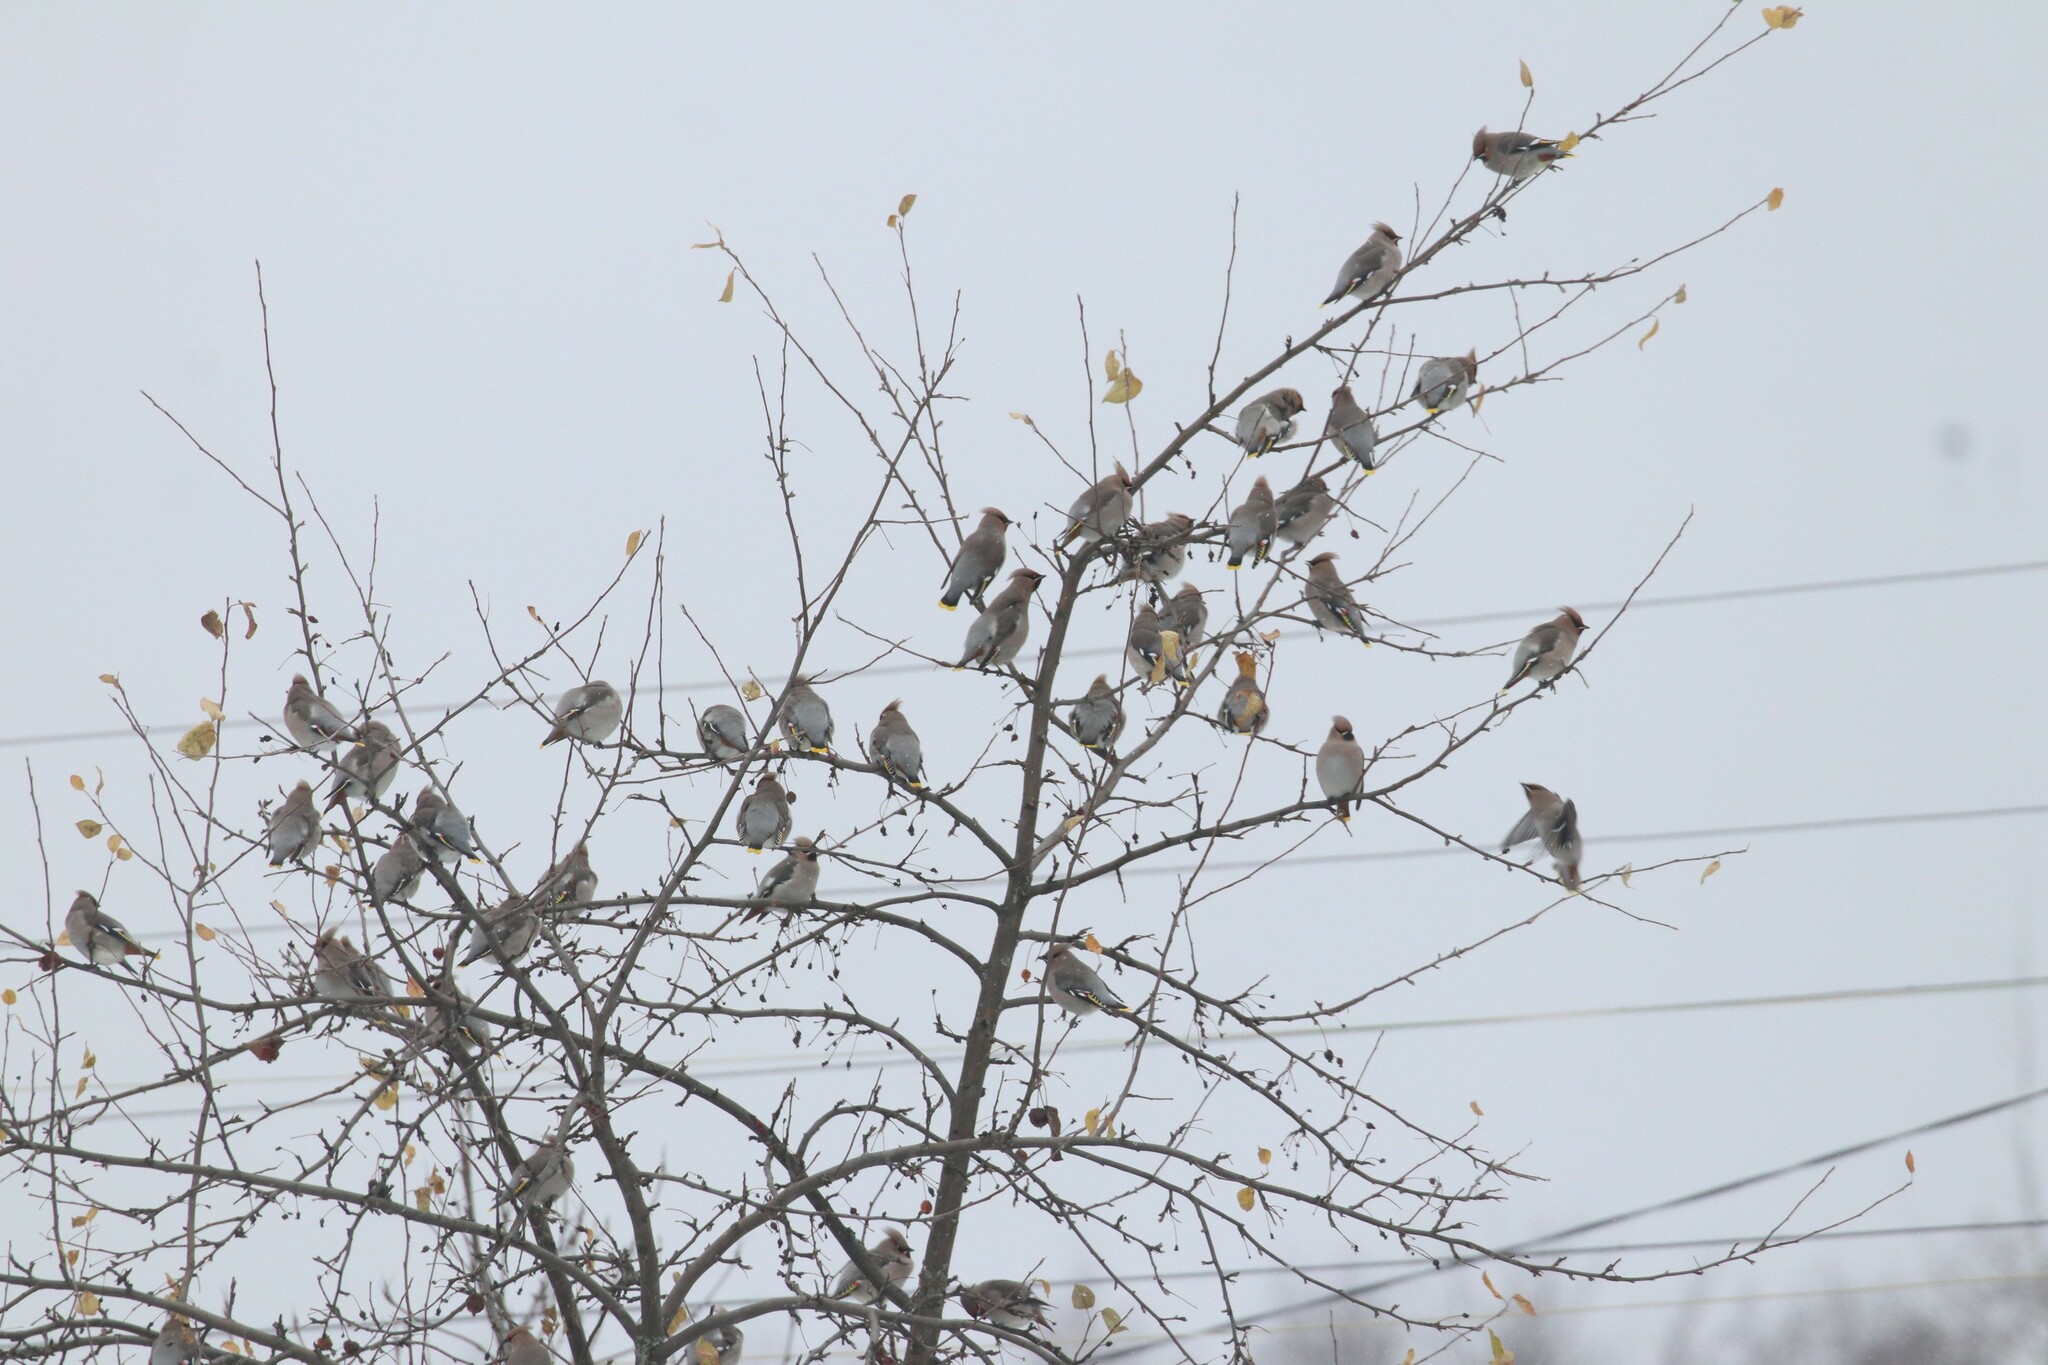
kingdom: Animalia
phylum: Chordata
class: Aves
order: Passeriformes
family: Bombycillidae
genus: Bombycilla
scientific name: Bombycilla garrulus
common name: Bohemian waxwing
